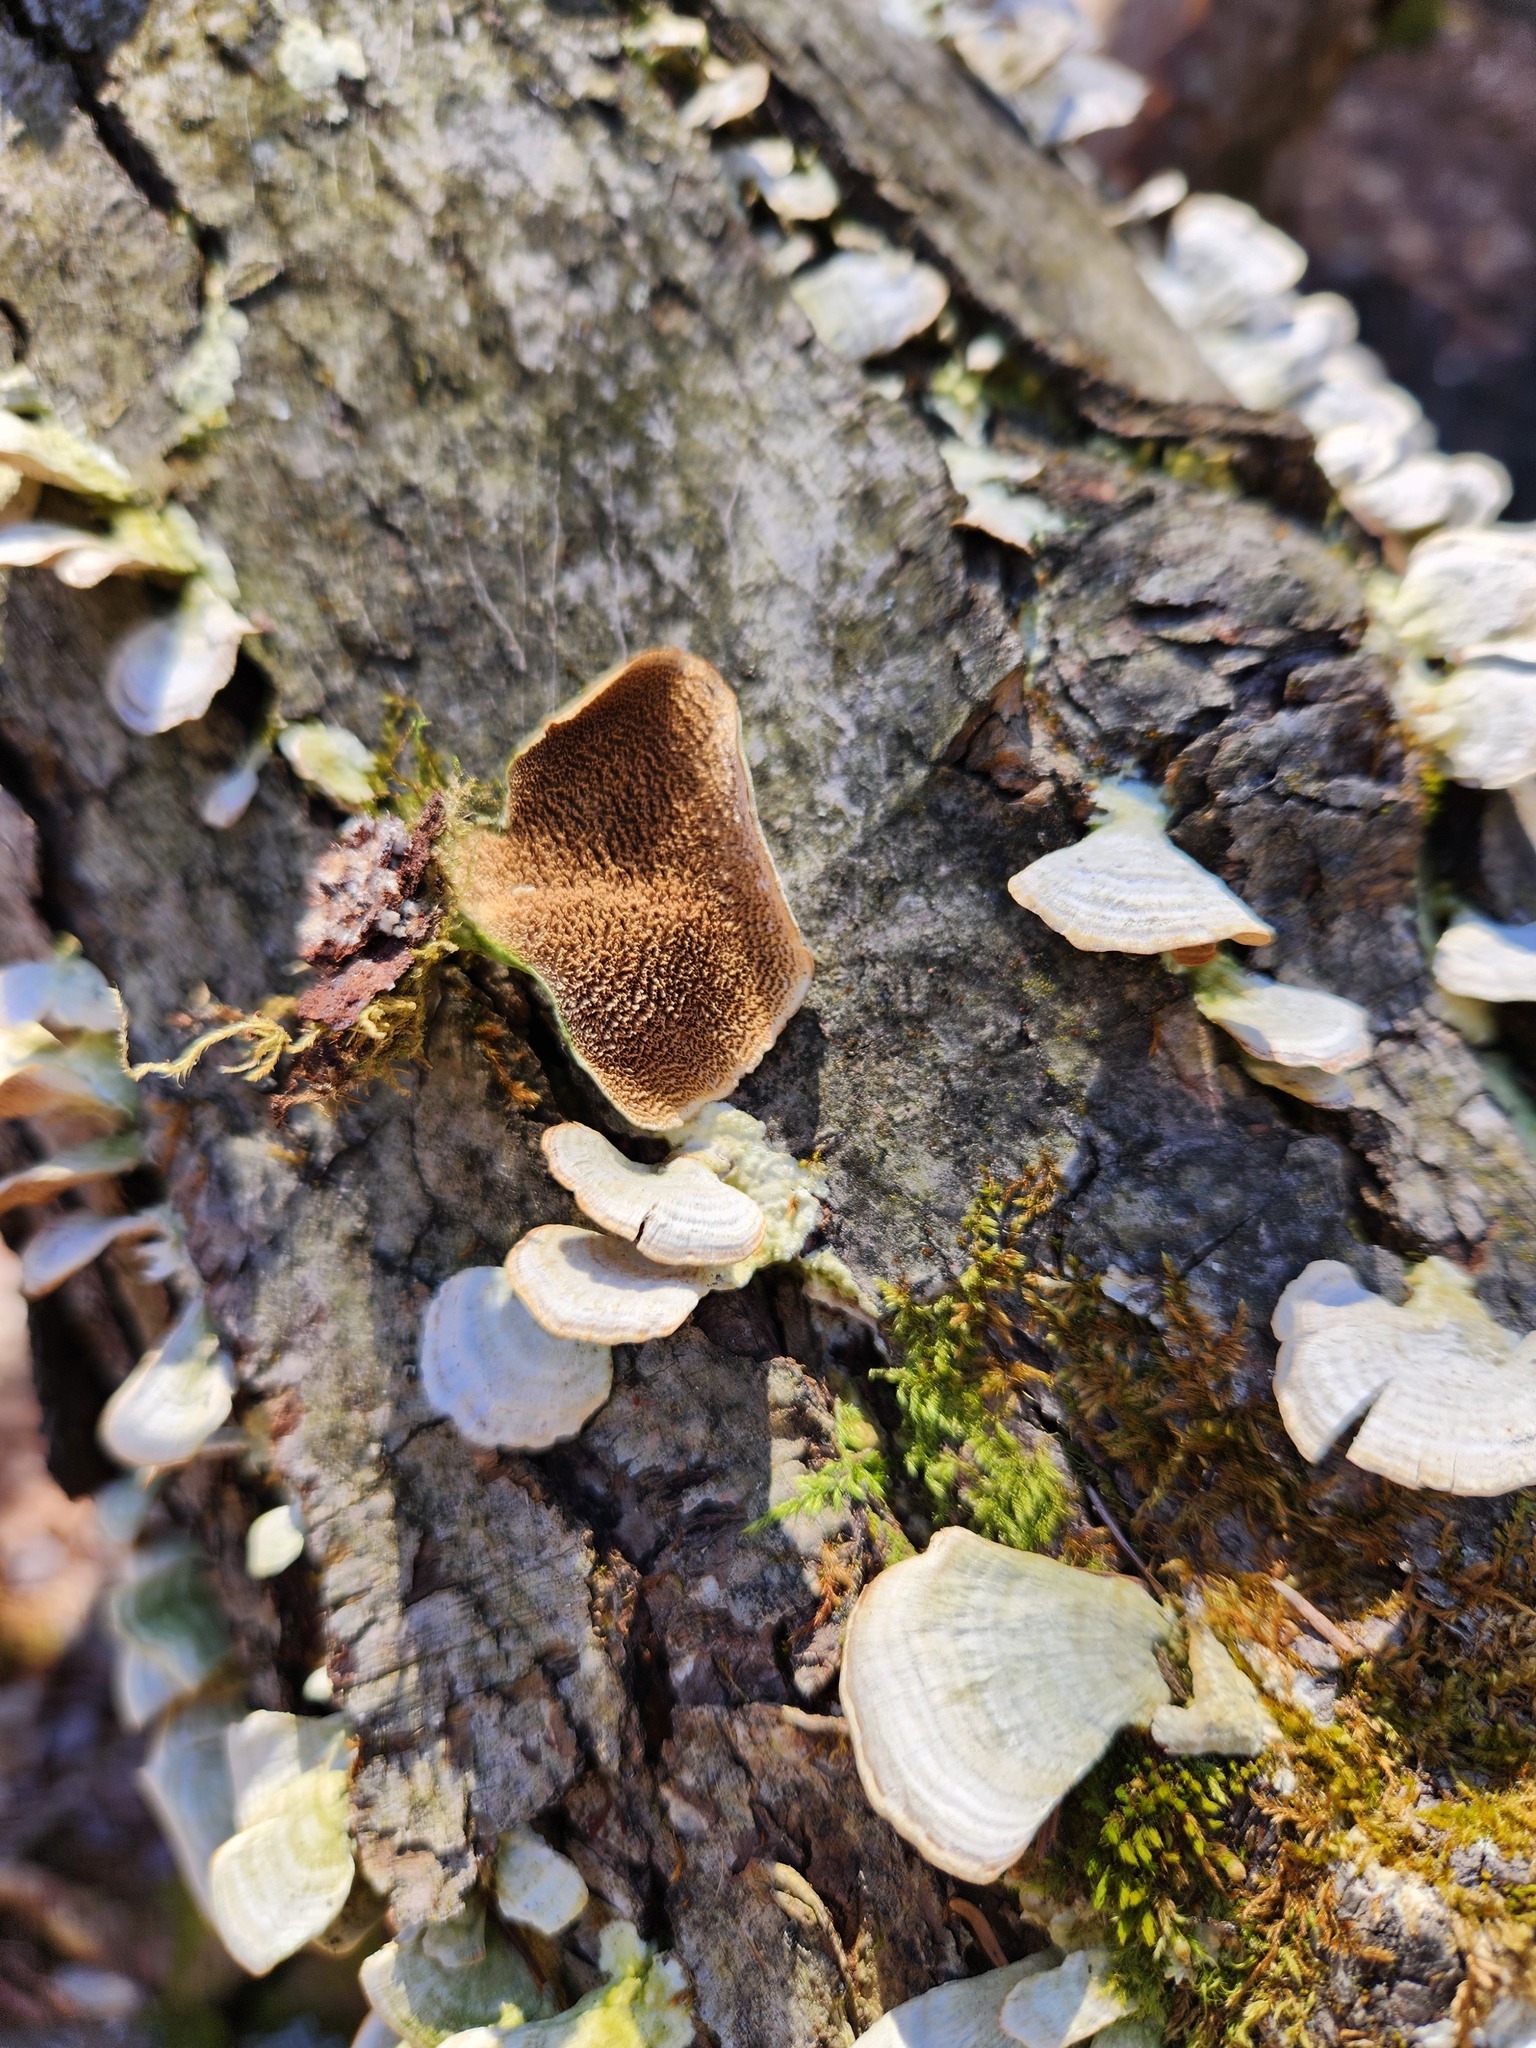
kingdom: Fungi
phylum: Basidiomycota
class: Agaricomycetes
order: Hymenochaetales
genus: Trichaptum
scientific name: Trichaptum biforme
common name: Violet-toothed polypore
